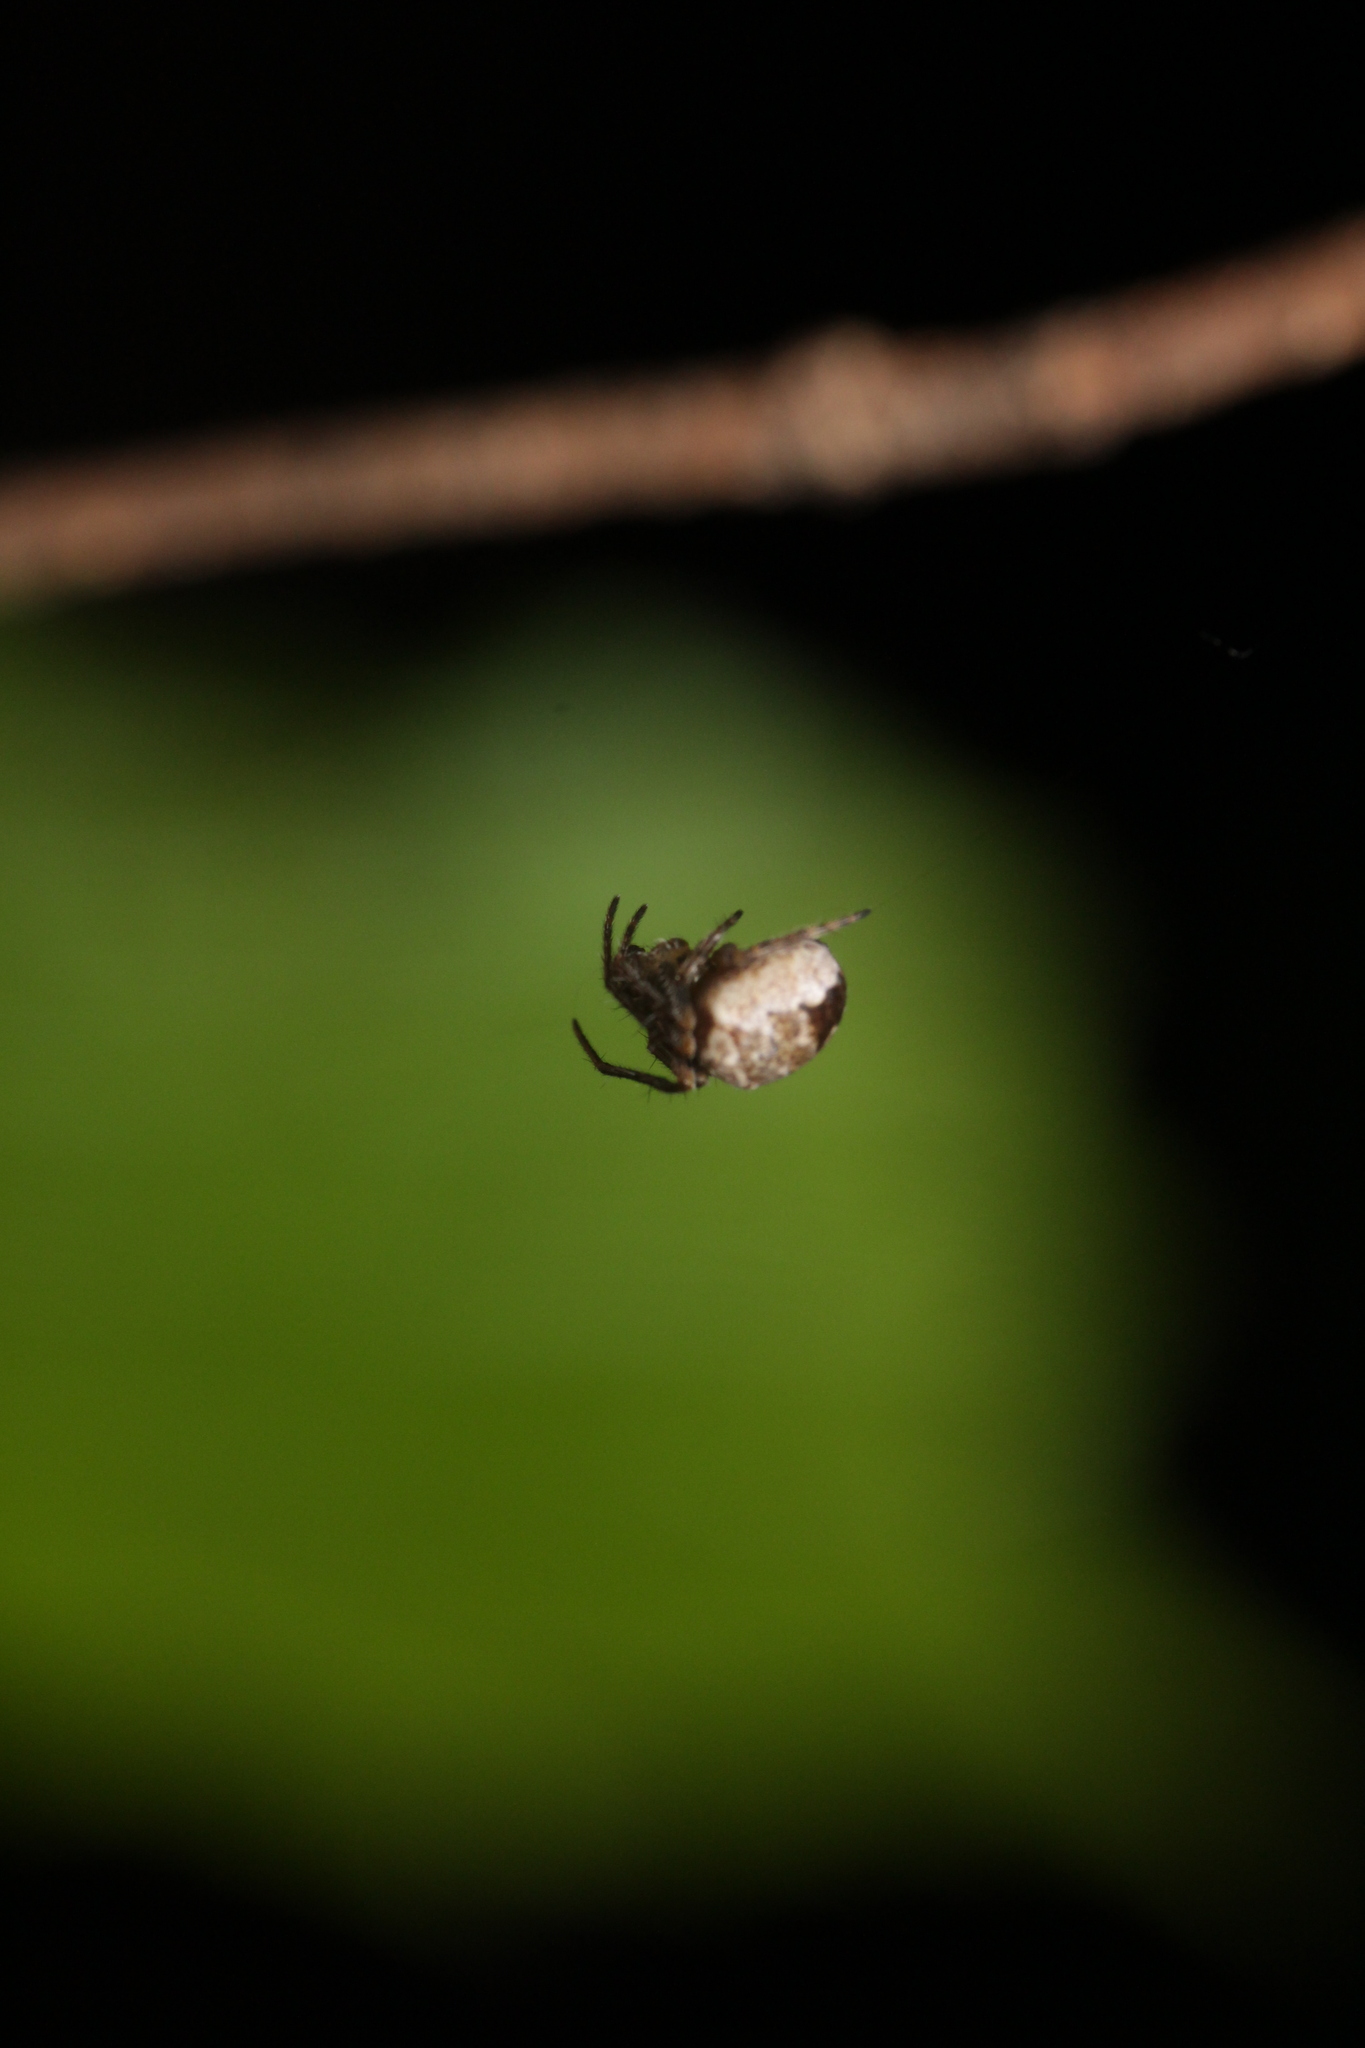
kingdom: Animalia
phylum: Arthropoda
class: Arachnida
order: Araneae
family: Araneidae
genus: Zilla
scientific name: Zilla diodia
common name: Zilla diodia
